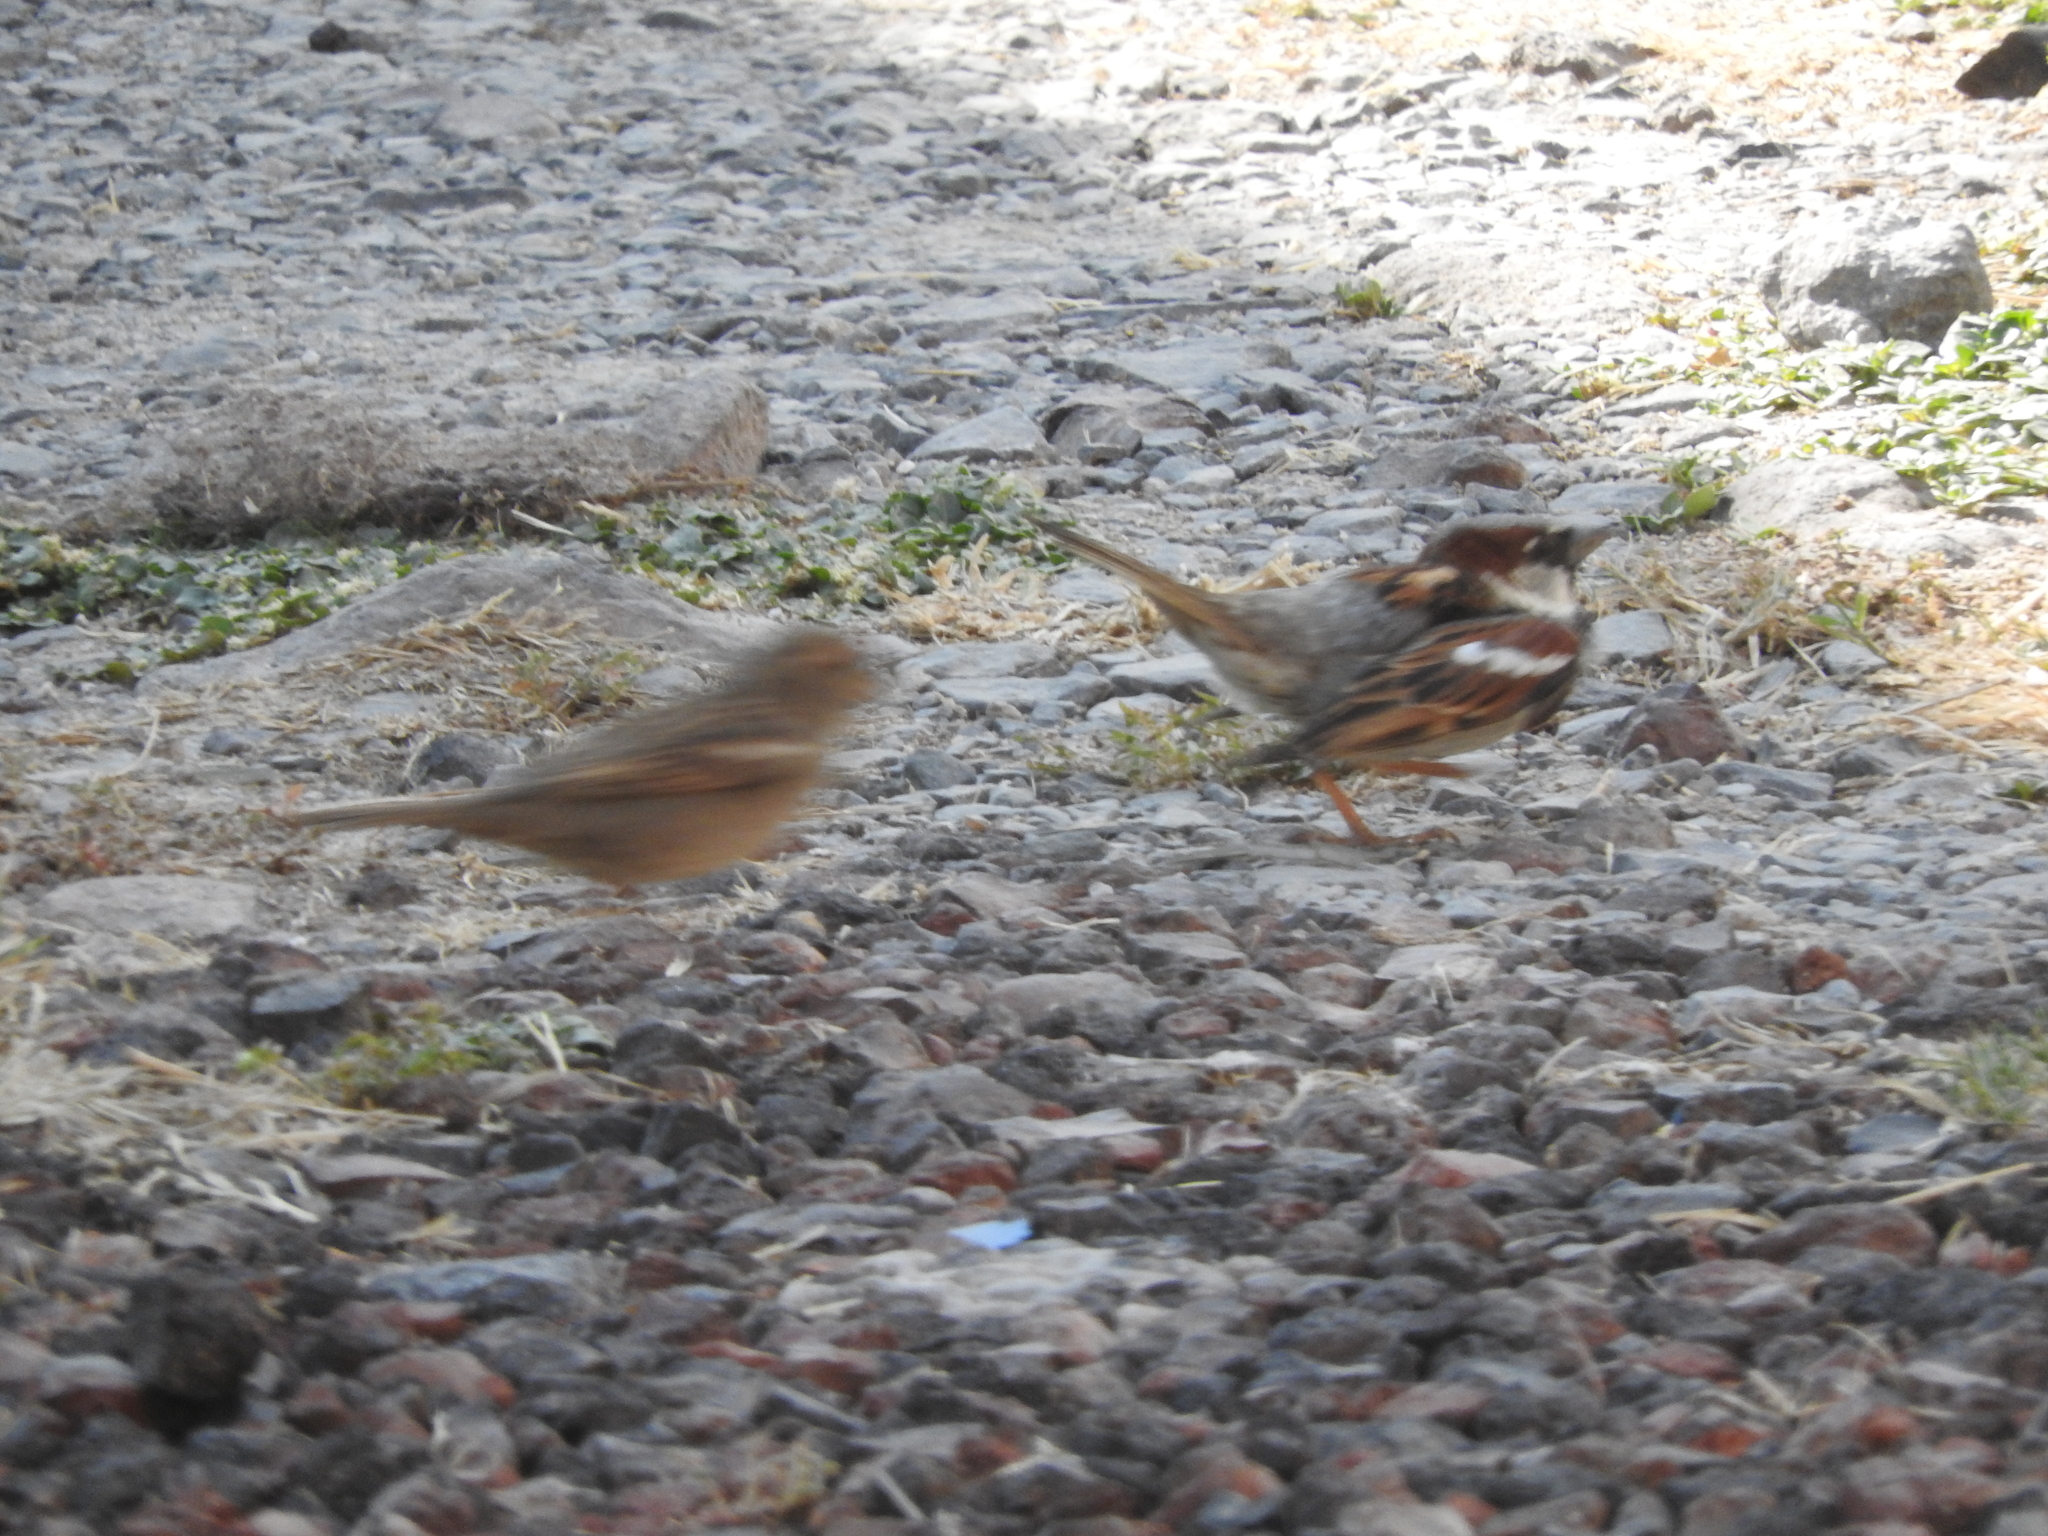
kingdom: Animalia
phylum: Chordata
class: Aves
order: Passeriformes
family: Passeridae
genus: Passer
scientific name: Passer domesticus
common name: House sparrow
